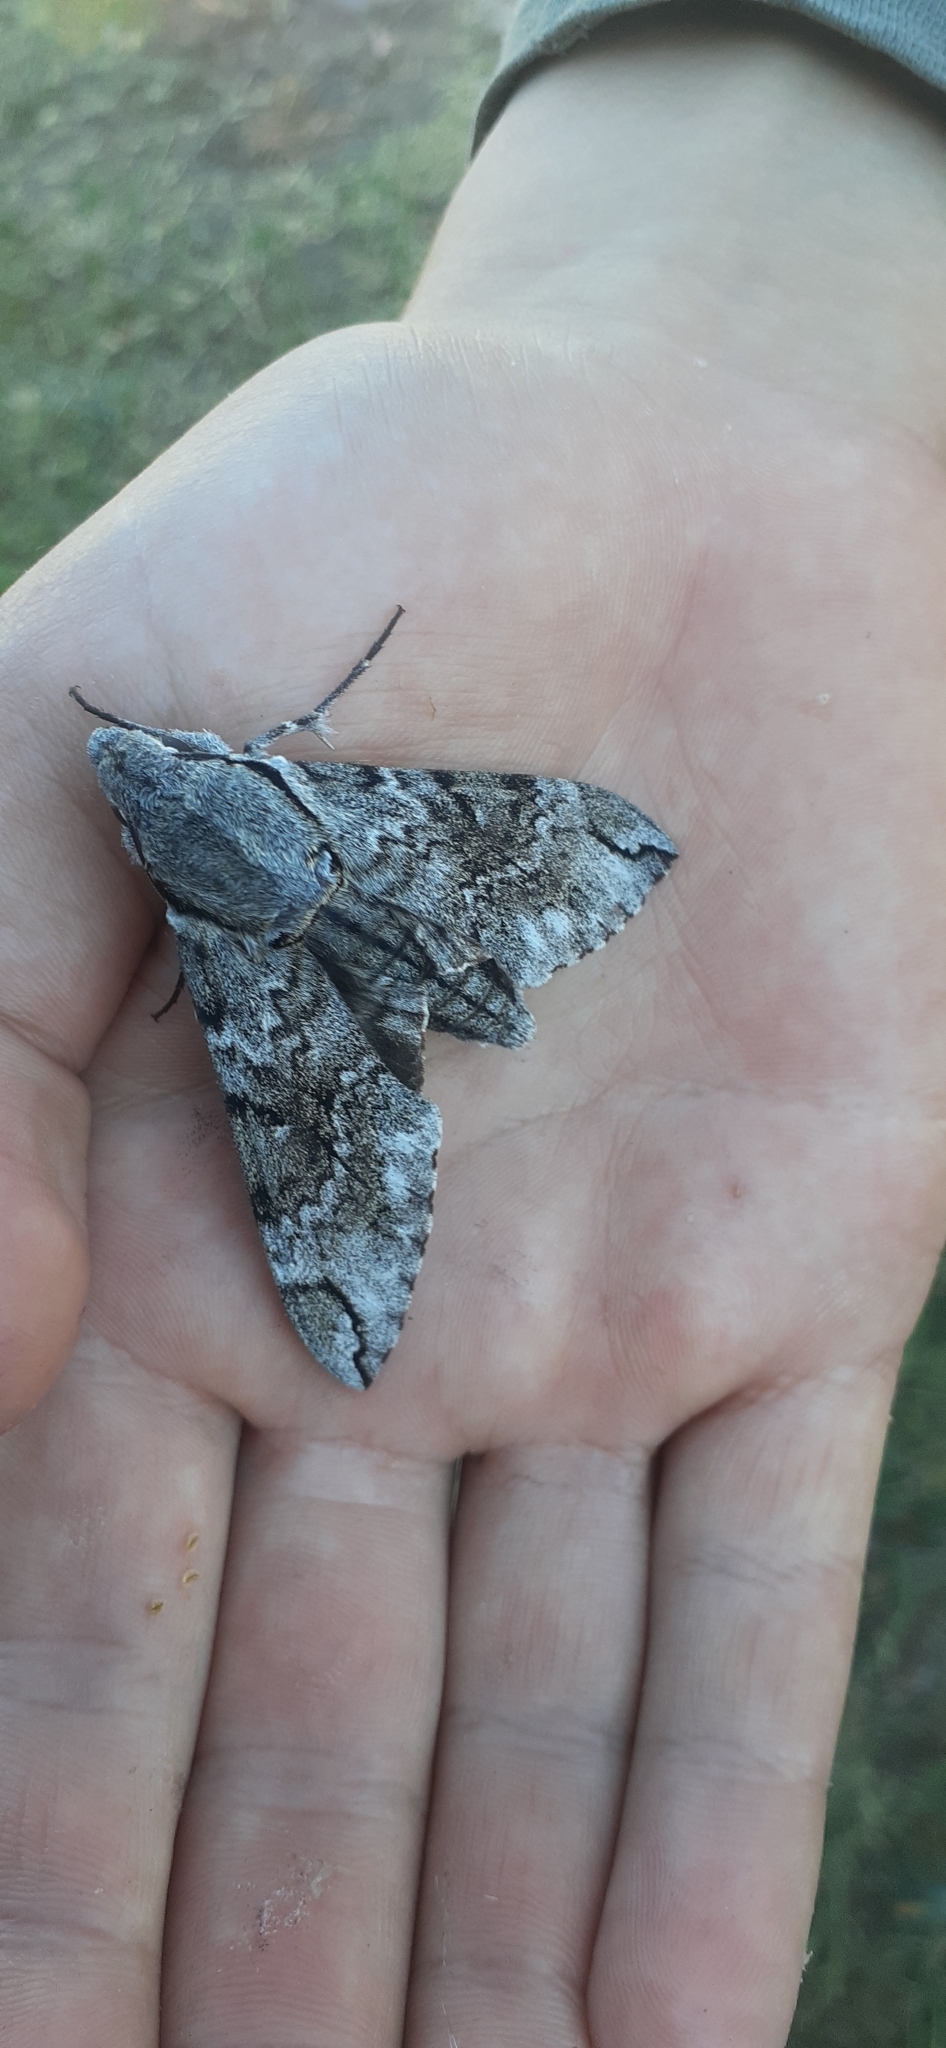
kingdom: Animalia
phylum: Arthropoda
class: Insecta
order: Lepidoptera
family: Sphingidae
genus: Psilogramma
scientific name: Psilogramma casuarinae
